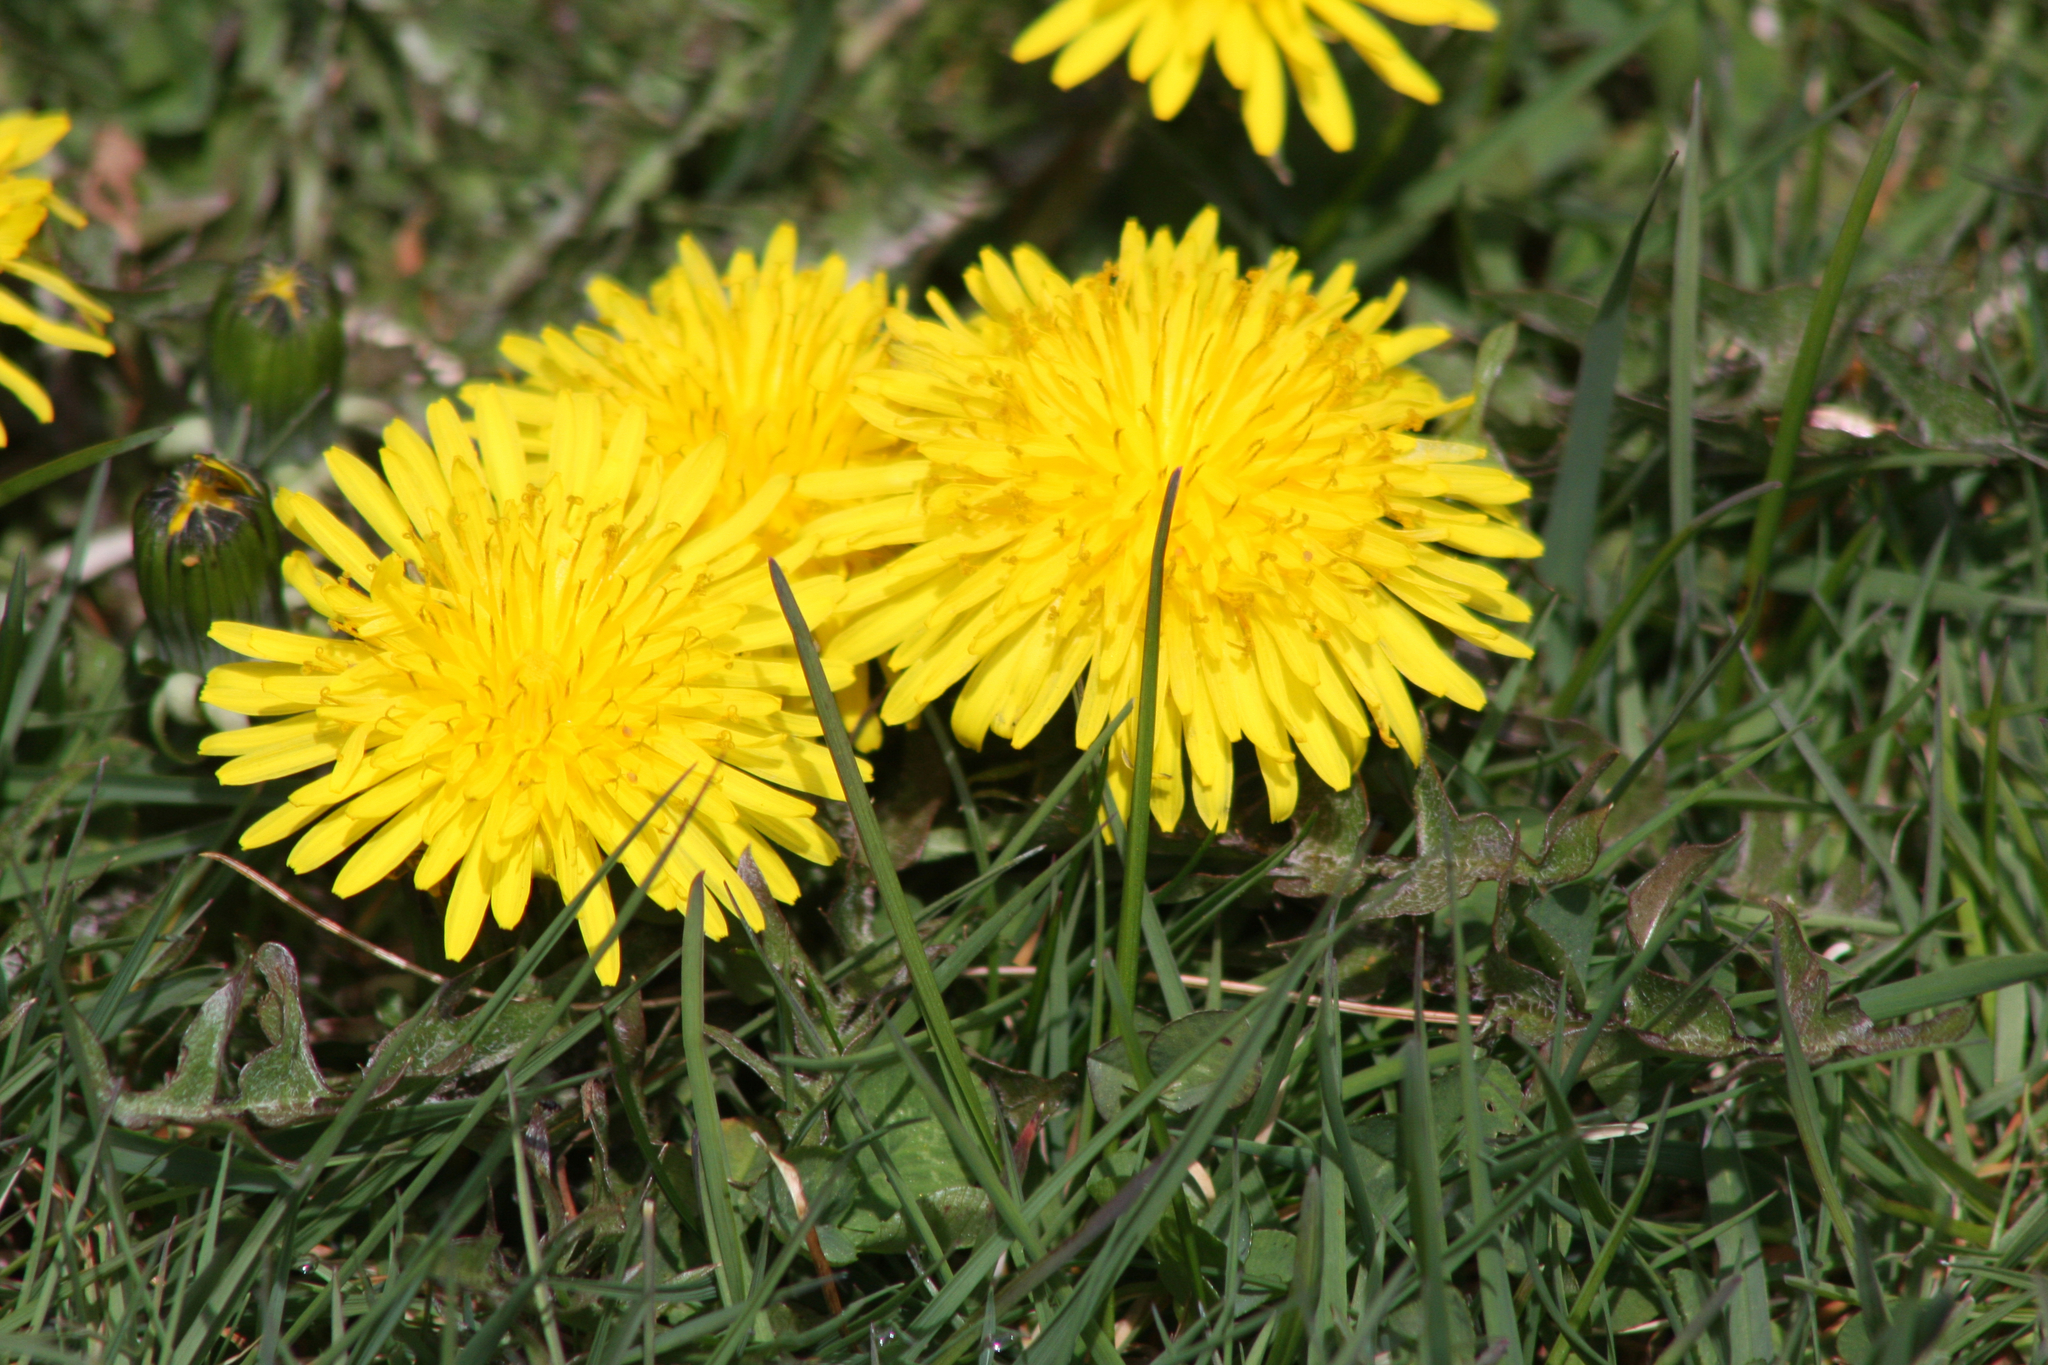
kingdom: Plantae
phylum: Tracheophyta
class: Magnoliopsida
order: Asterales
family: Asteraceae
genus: Taraxacum
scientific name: Taraxacum officinale
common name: Common dandelion
